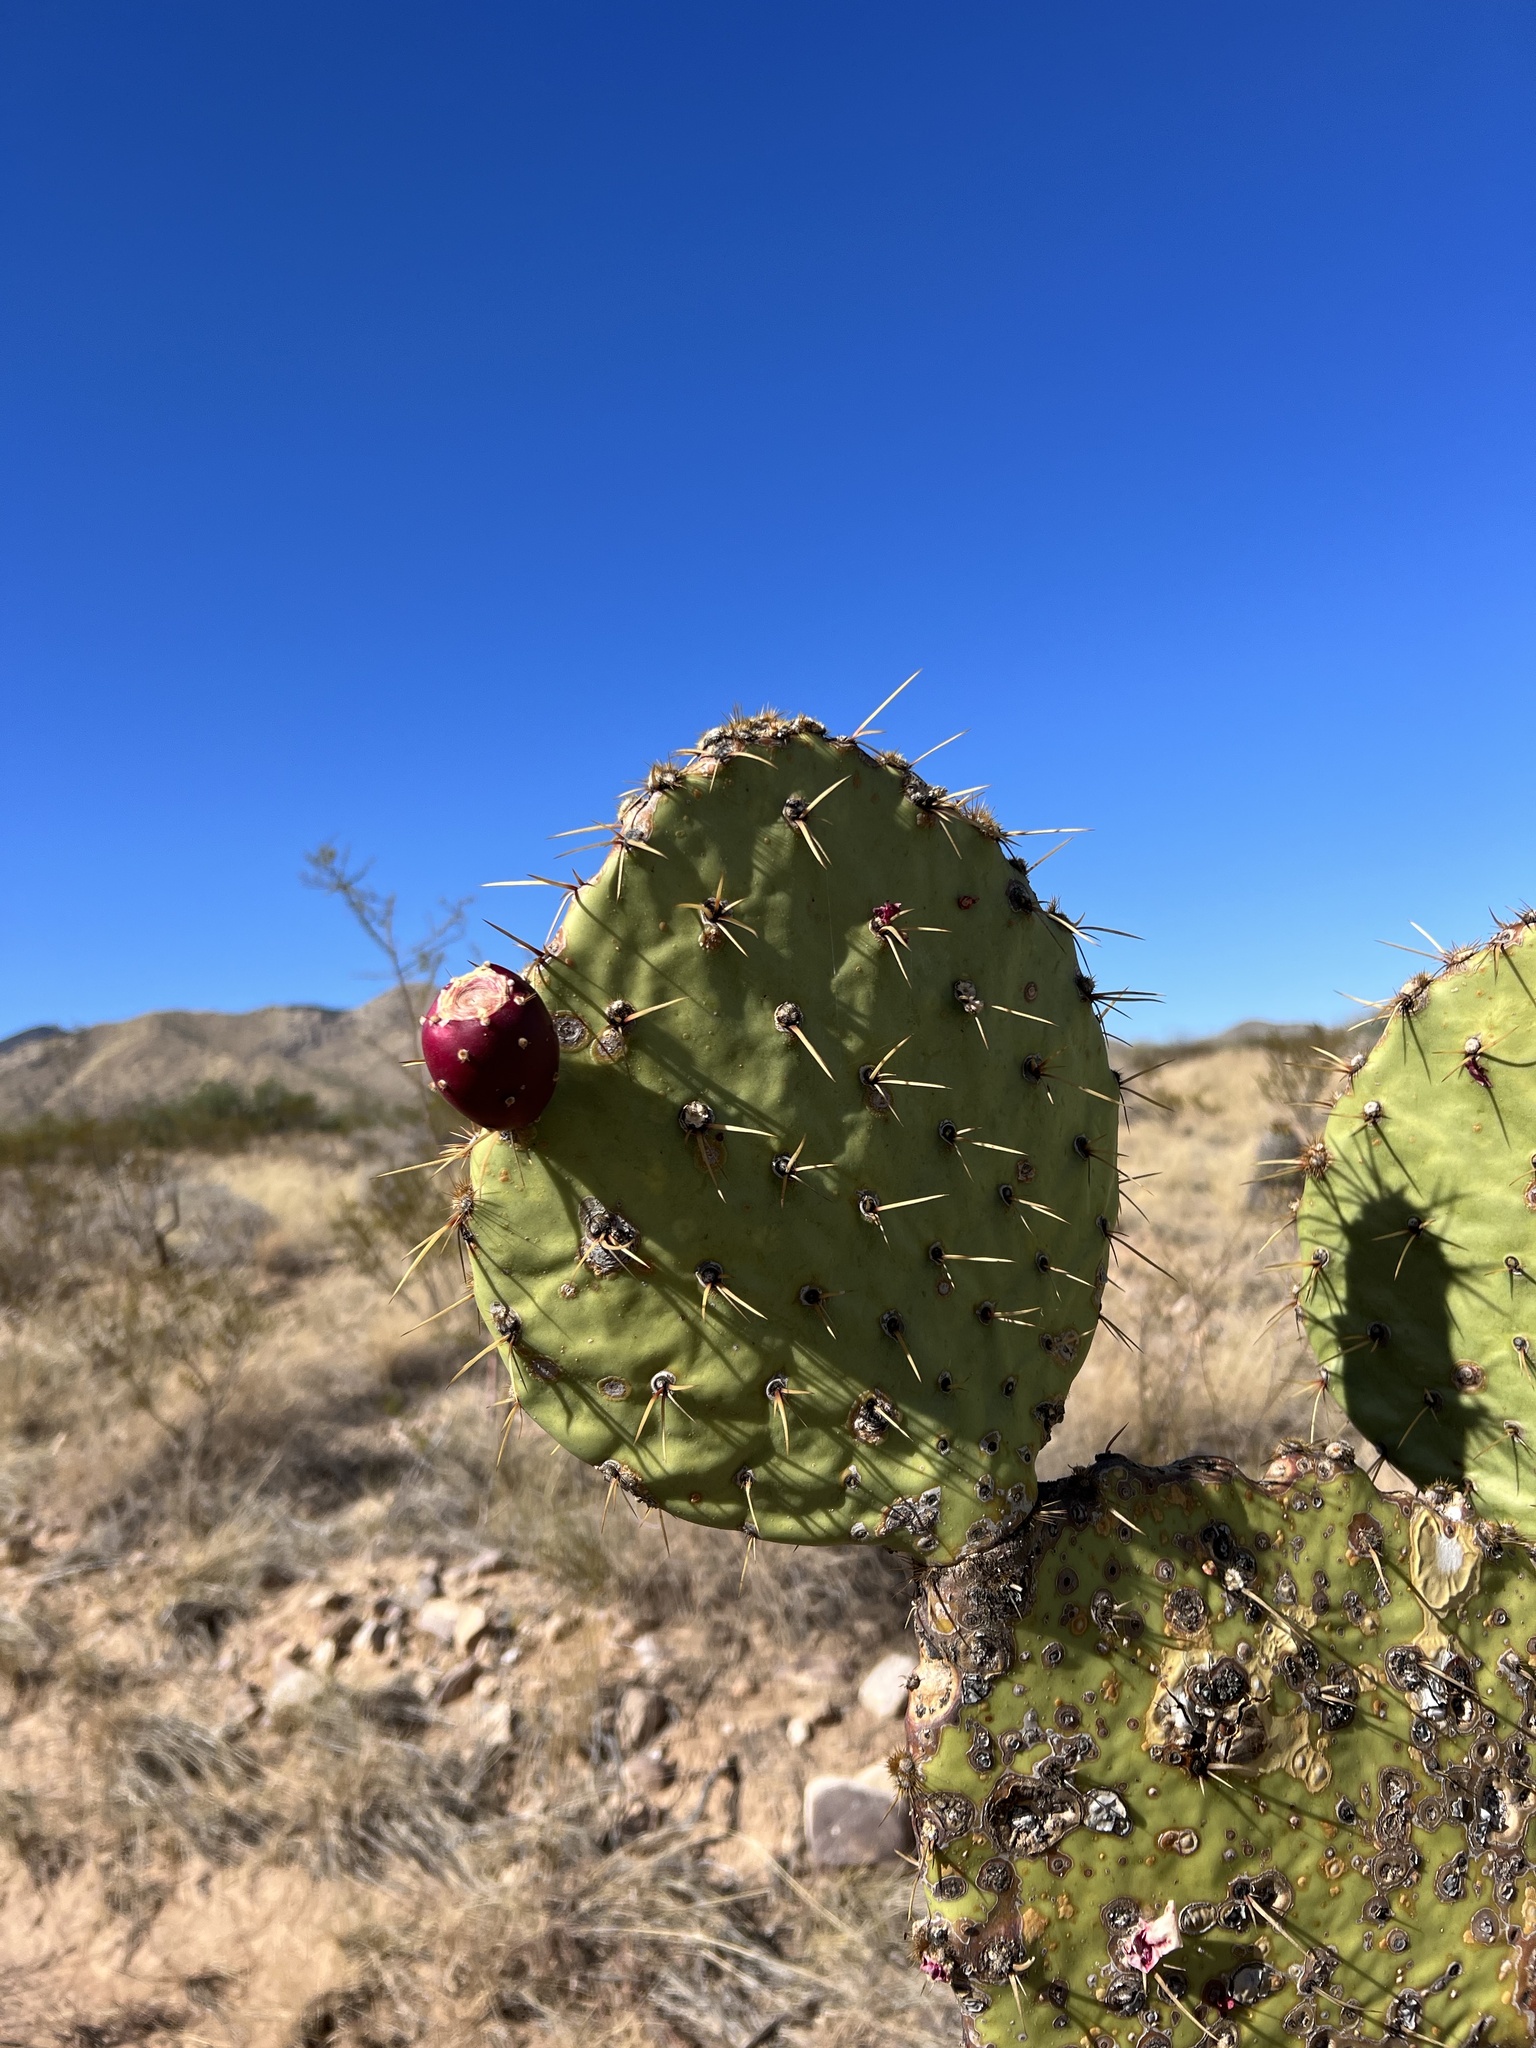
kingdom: Plantae
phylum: Tracheophyta
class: Magnoliopsida
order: Caryophyllales
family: Cactaceae
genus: Opuntia
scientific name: Opuntia engelmannii
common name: Cactus-apple
